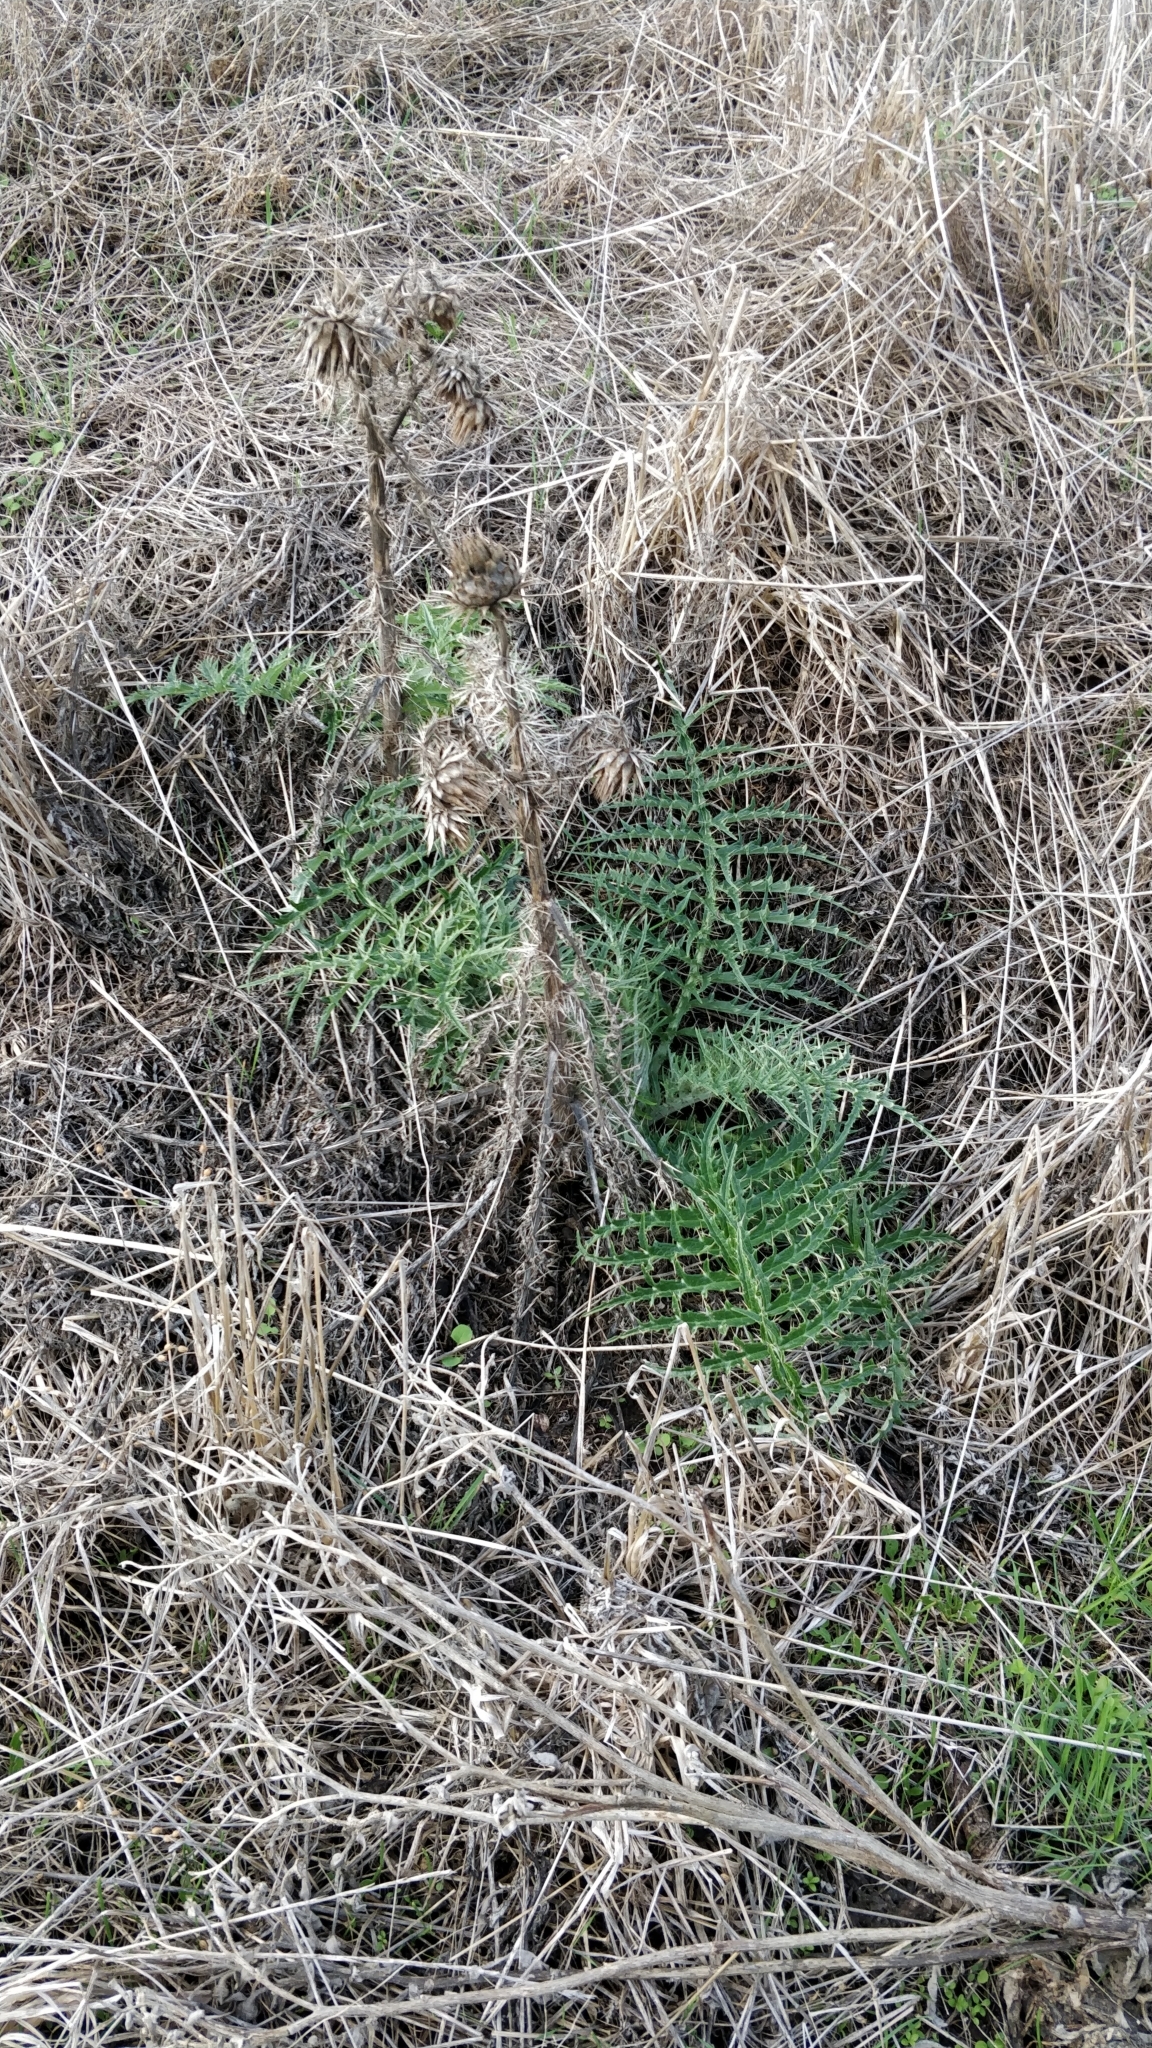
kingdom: Plantae
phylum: Tracheophyta
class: Magnoliopsida
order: Asterales
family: Asteraceae
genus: Cynara
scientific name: Cynara cardunculus
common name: Globe artichoke
